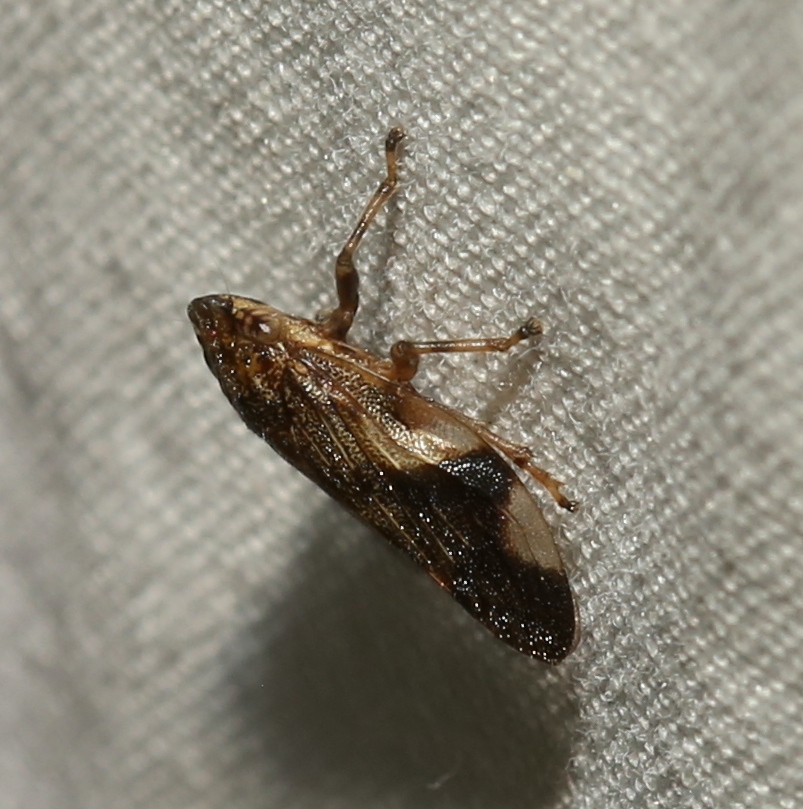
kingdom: Animalia
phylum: Arthropoda
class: Insecta
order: Hemiptera
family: Aphrophoridae
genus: Aphrophora
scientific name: Aphrophora quadrinotata
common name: Four-spotted spittlebug
